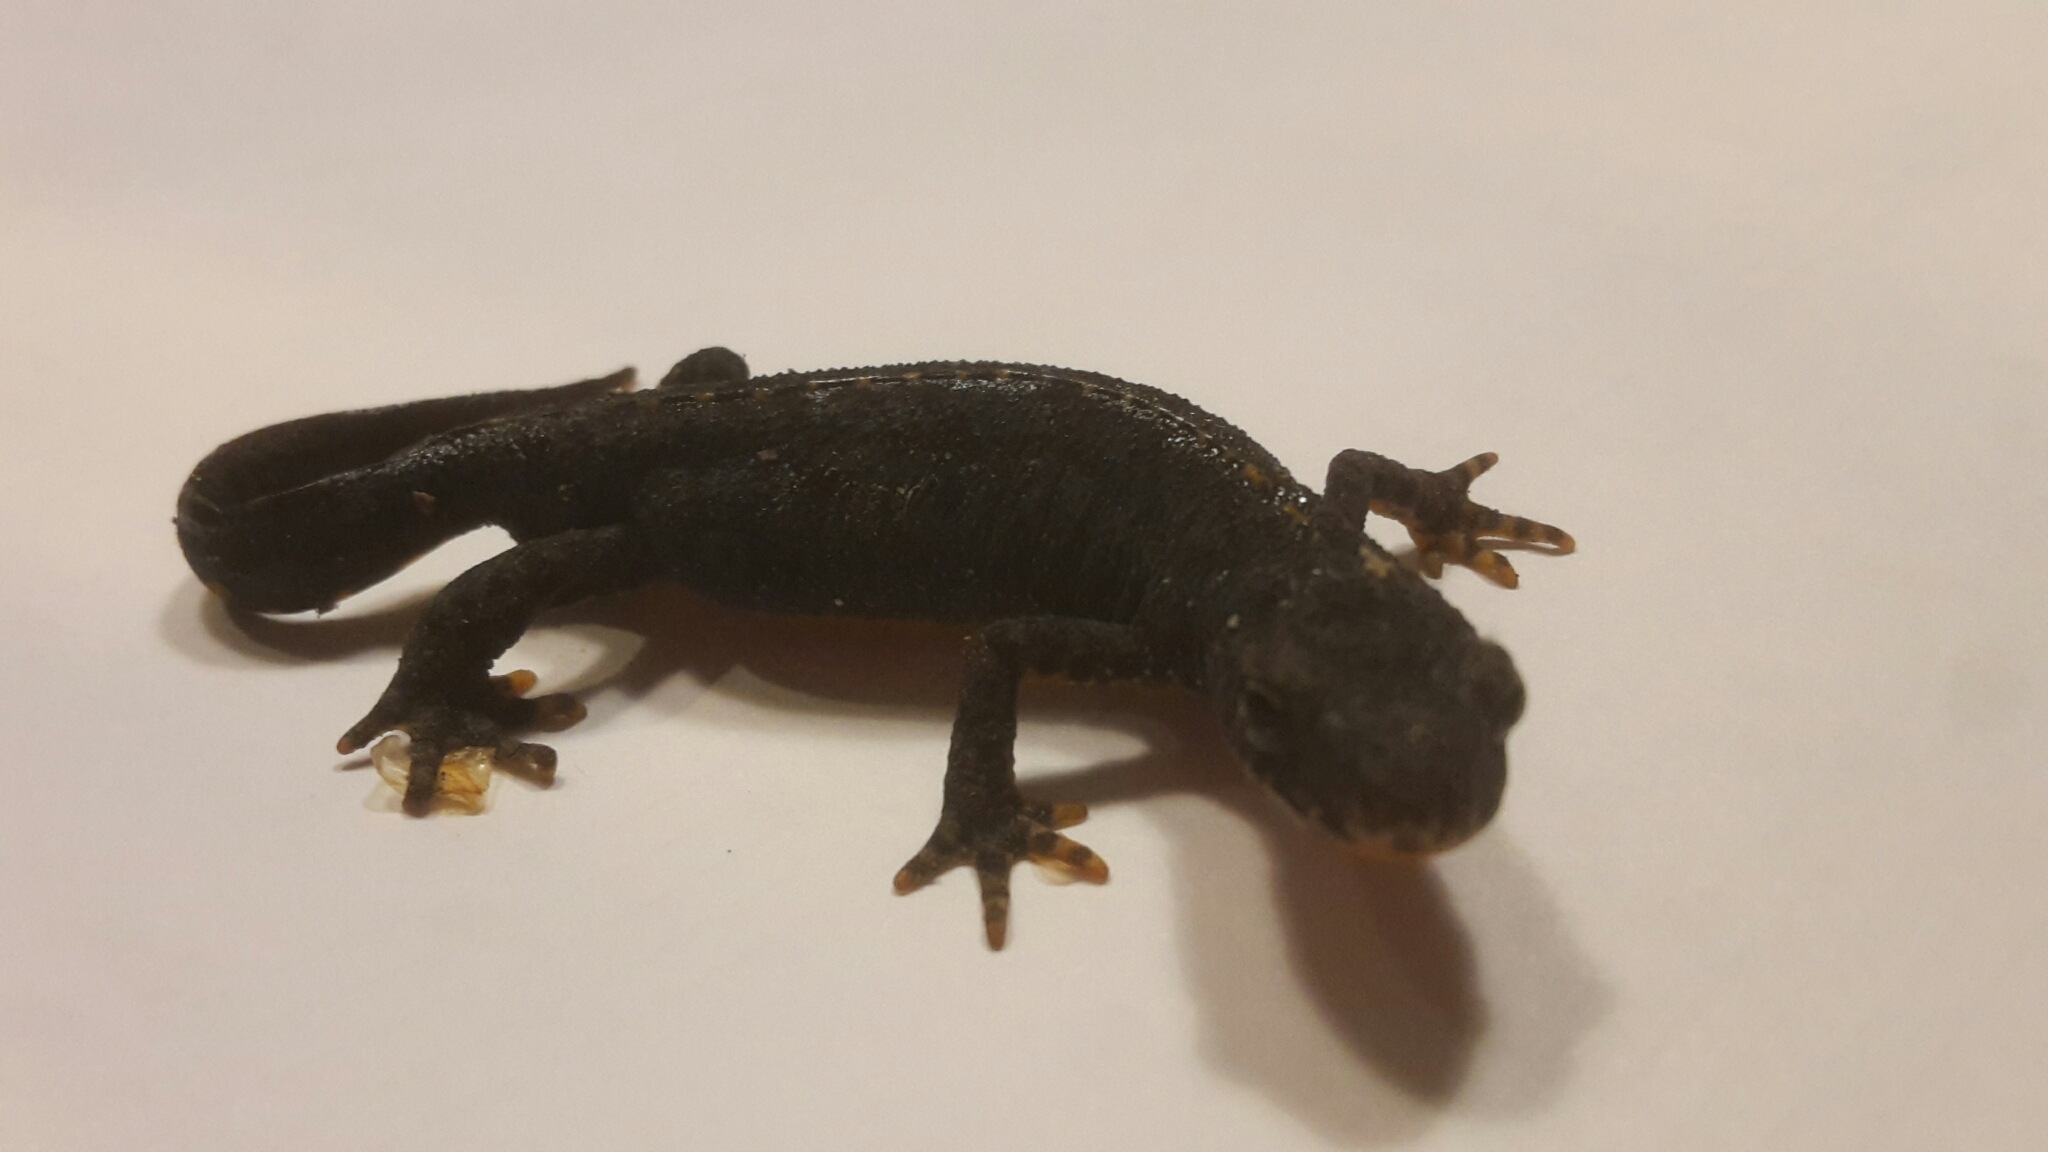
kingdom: Animalia
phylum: Chordata
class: Amphibia
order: Caudata
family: Salamandridae
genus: Ichthyosaura
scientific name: Ichthyosaura alpestris
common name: Alpine newt
